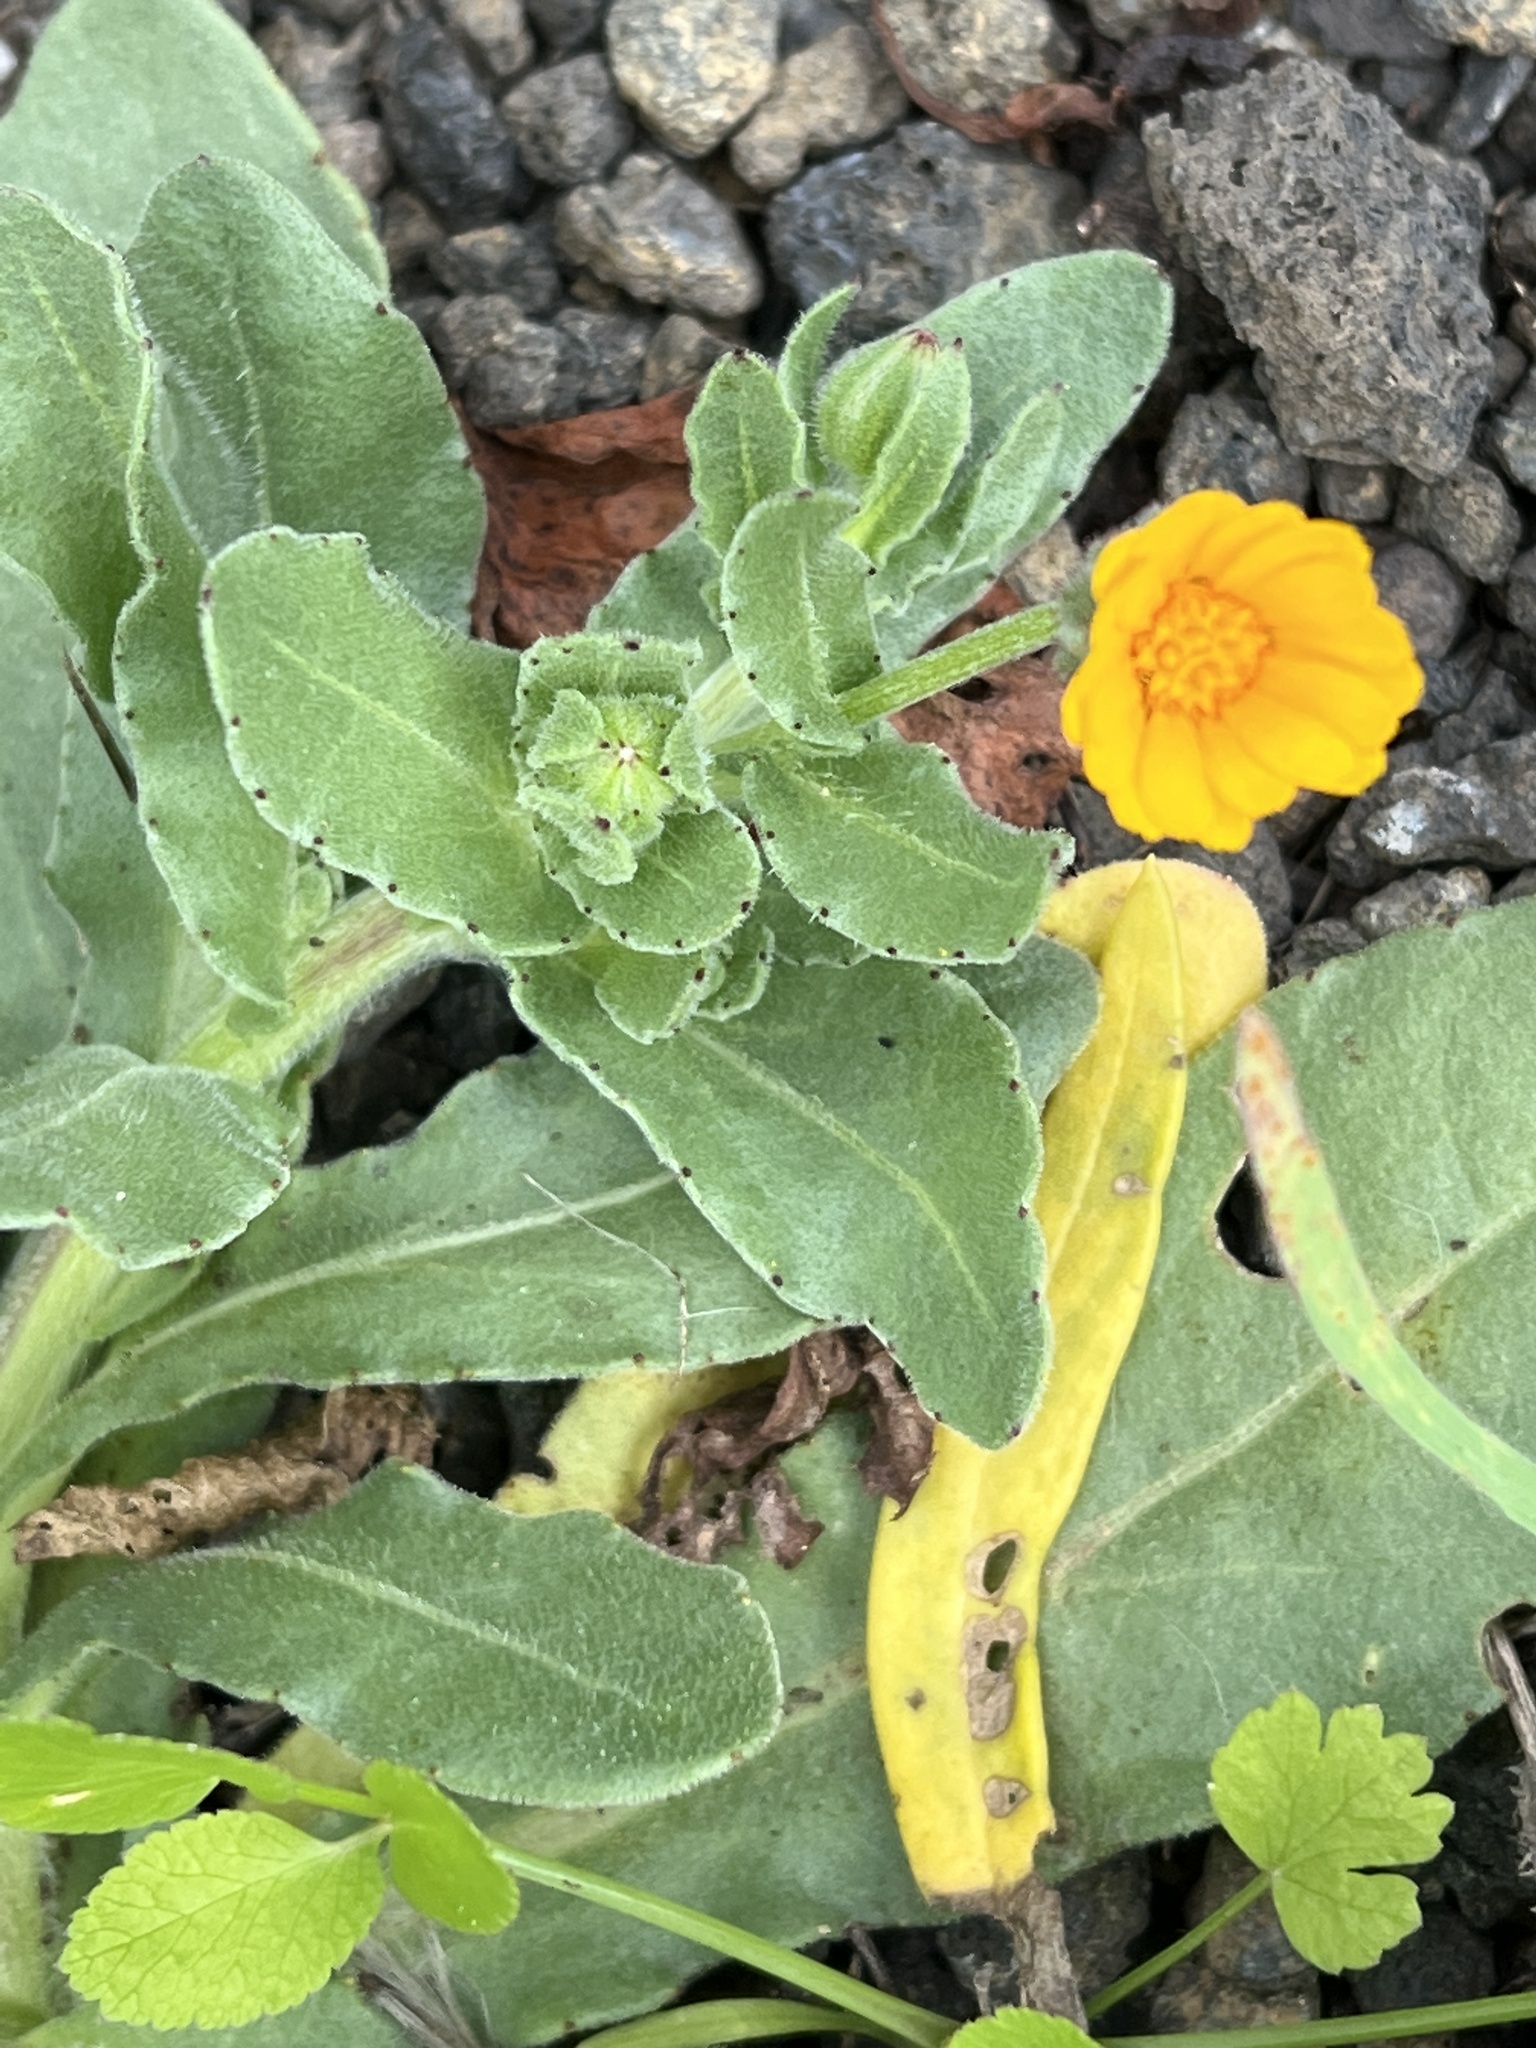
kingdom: Plantae
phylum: Tracheophyta
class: Magnoliopsida
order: Asterales
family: Asteraceae
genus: Calendula
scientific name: Calendula arvensis
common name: Field marigold
